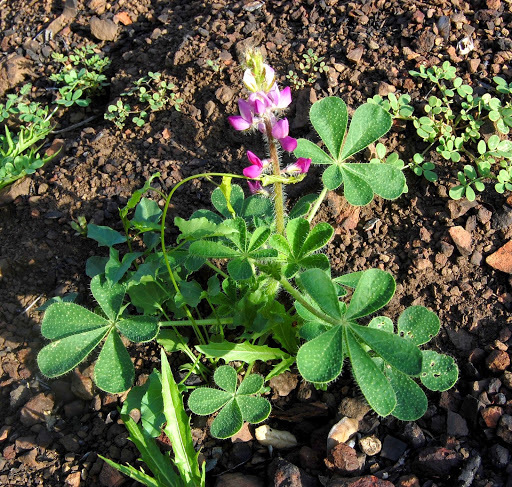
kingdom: Plantae
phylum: Tracheophyta
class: Magnoliopsida
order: Fabales
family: Fabaceae
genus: Lupinus
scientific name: Lupinus hirsutissimus
